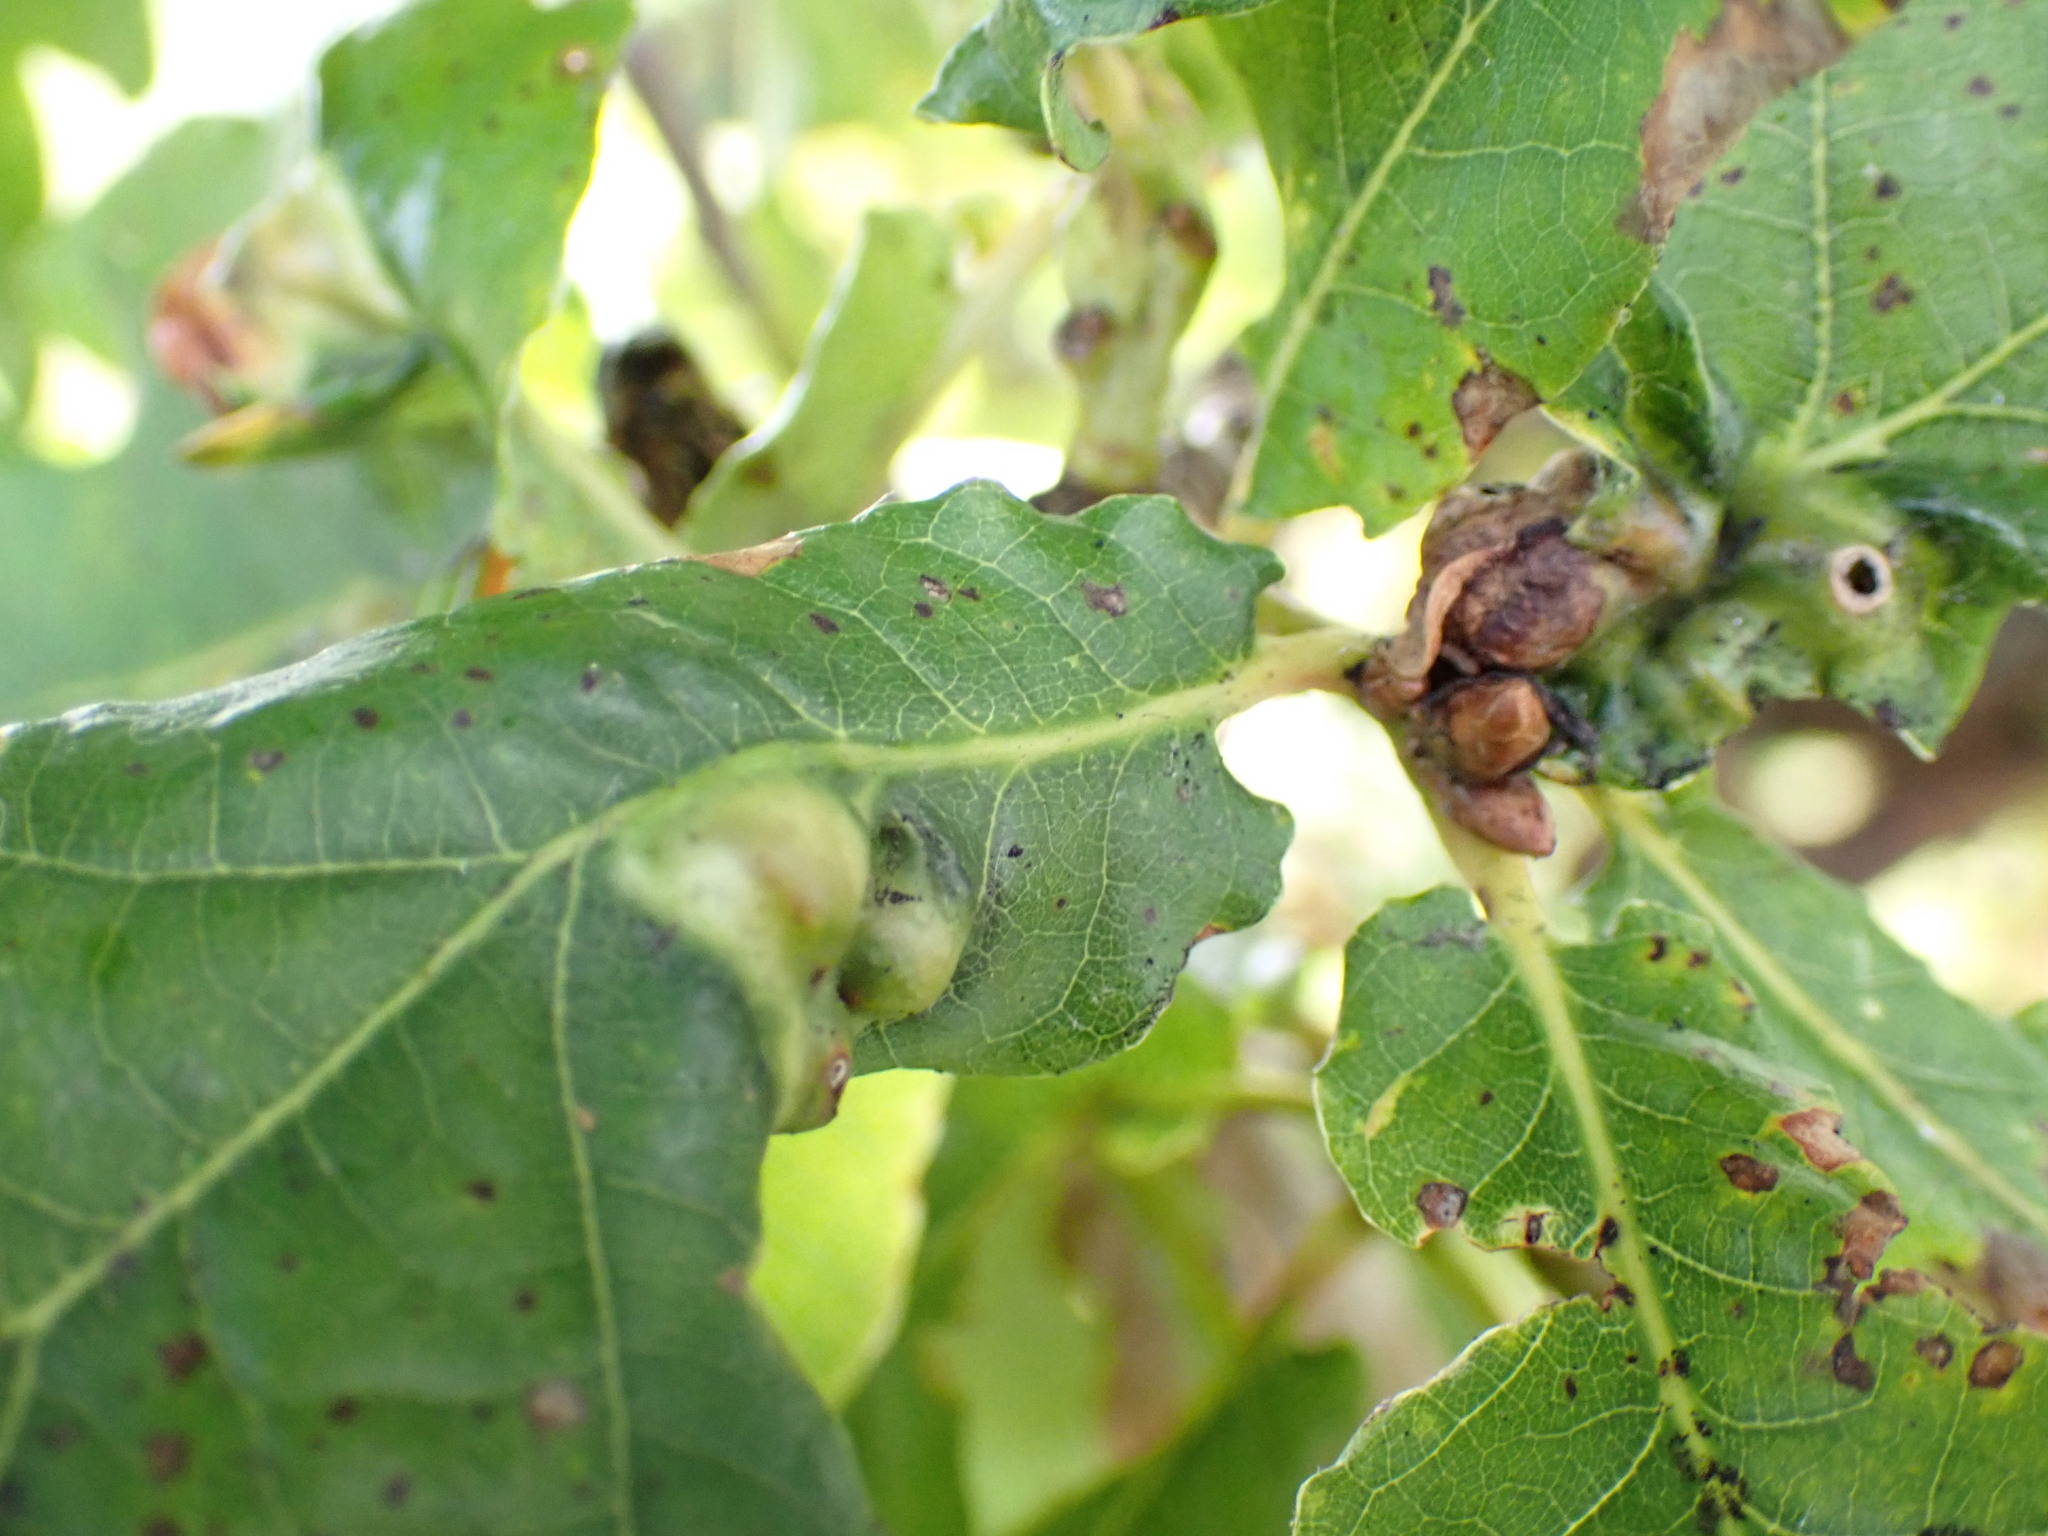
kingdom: Animalia
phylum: Arthropoda
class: Insecta
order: Hymenoptera
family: Cynipidae
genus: Andricus
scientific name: Andricus curvator
